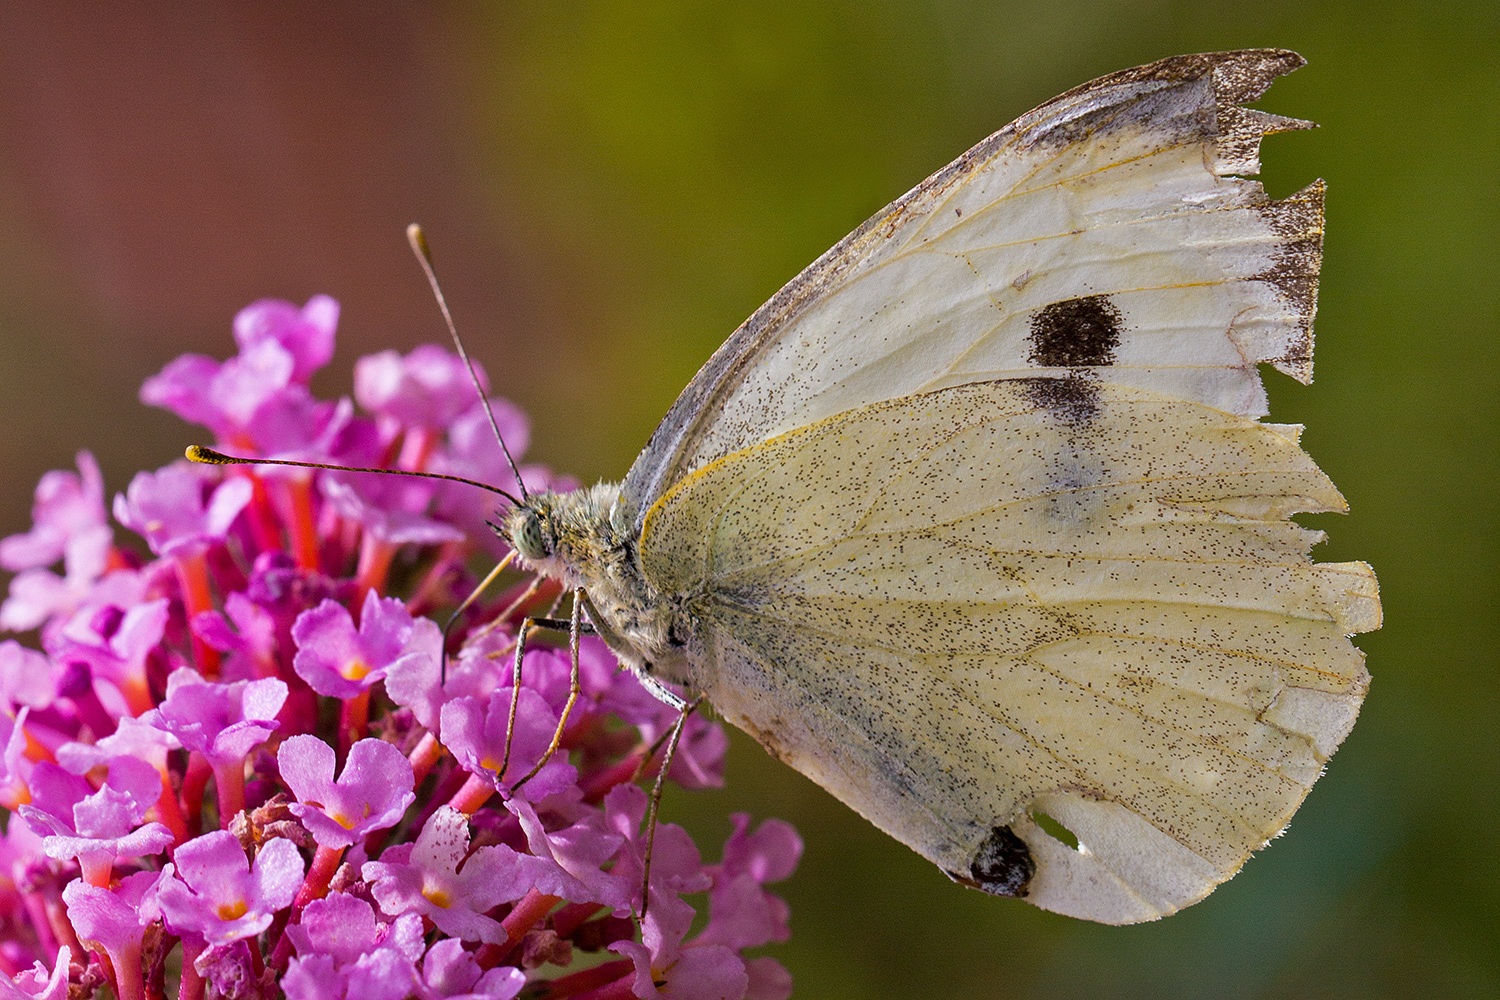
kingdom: Animalia
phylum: Arthropoda
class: Insecta
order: Lepidoptera
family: Pieridae
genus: Pieris
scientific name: Pieris brassicae
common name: Large white
